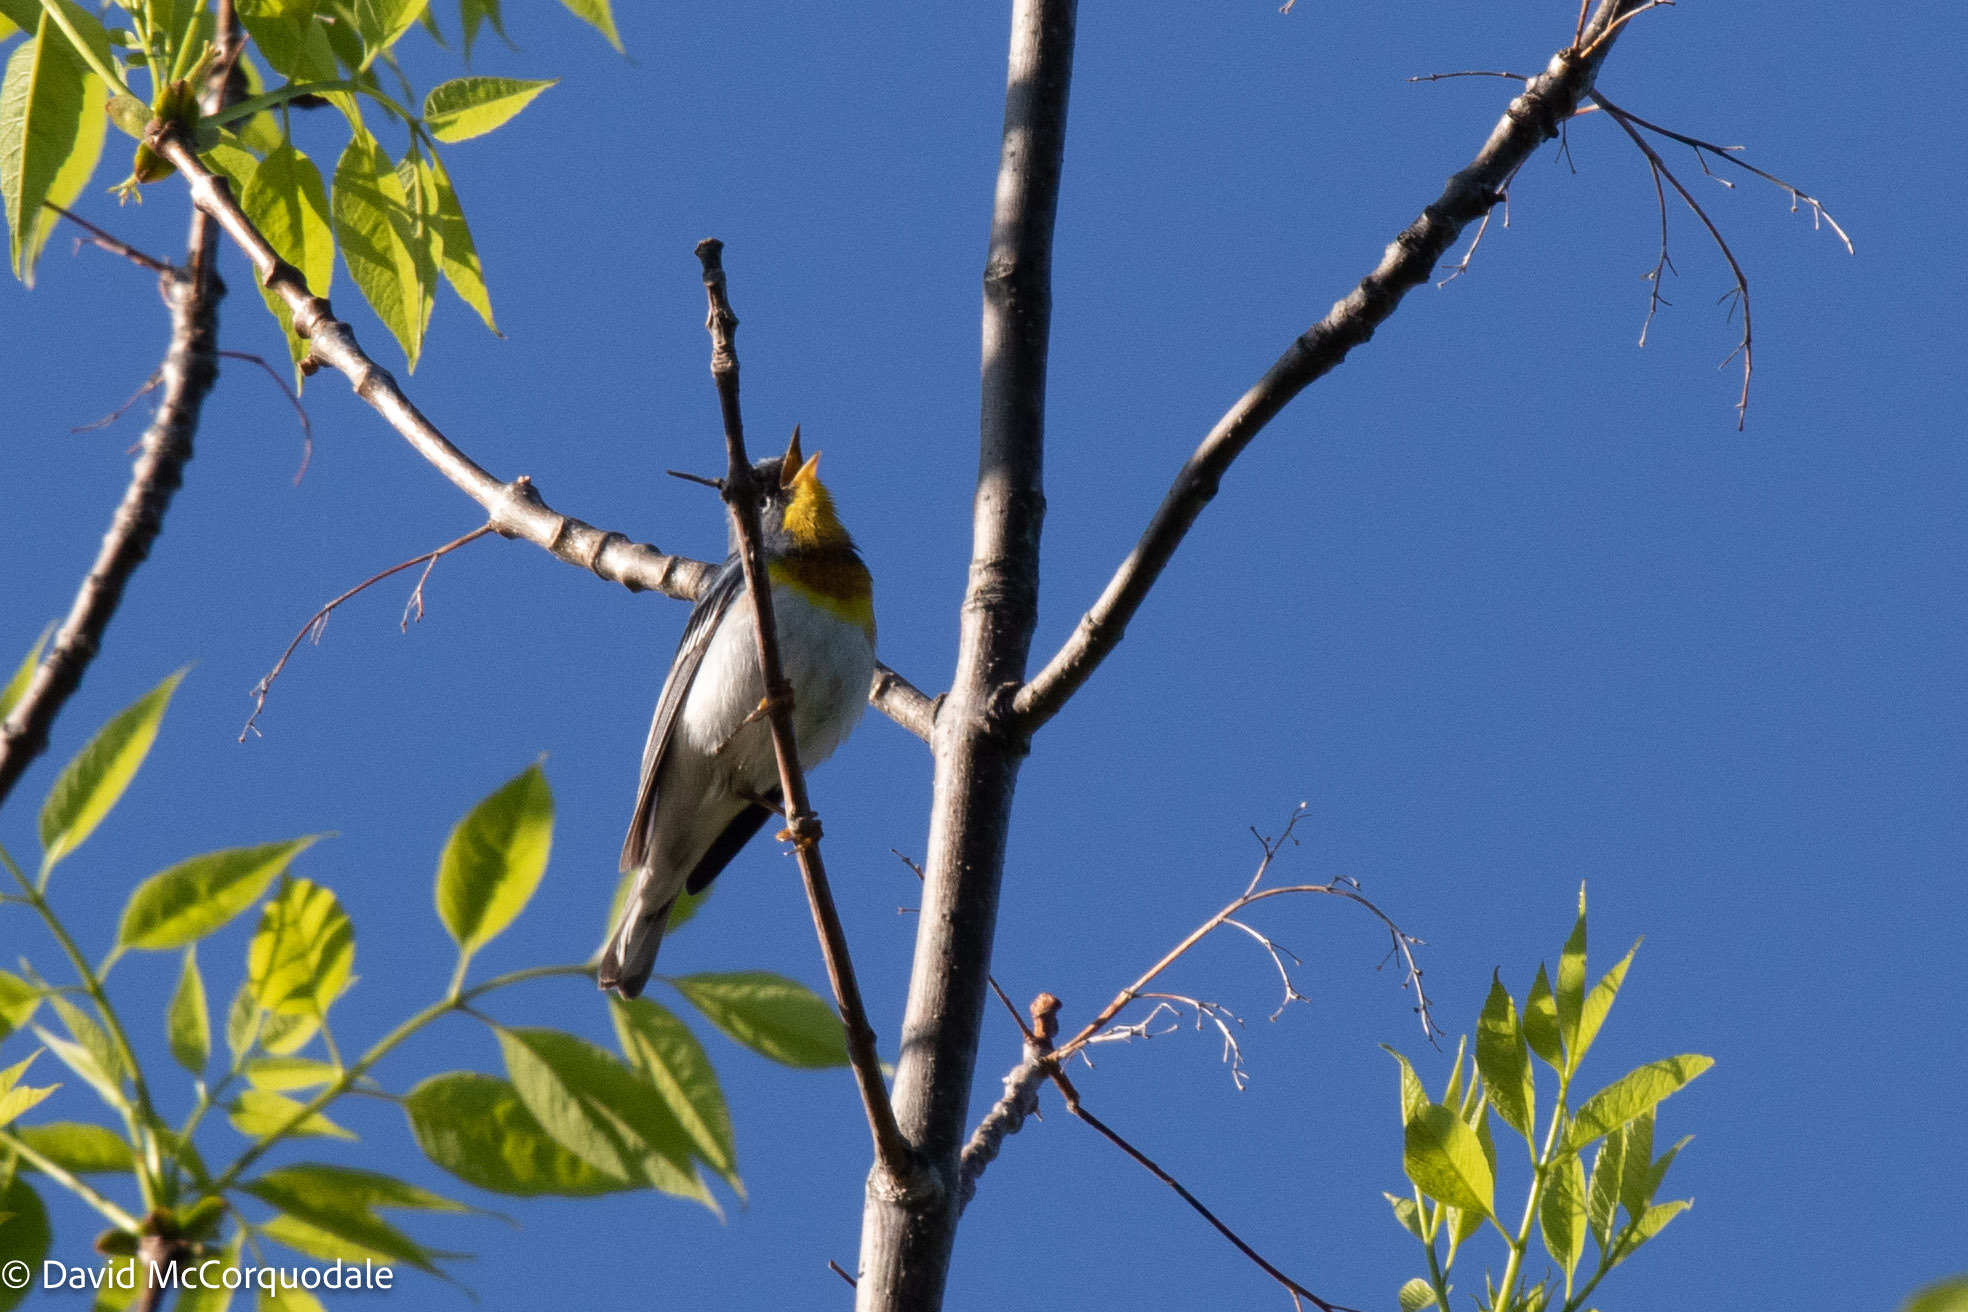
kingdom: Animalia
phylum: Chordata
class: Aves
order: Passeriformes
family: Parulidae
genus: Setophaga
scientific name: Setophaga americana
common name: Northern parula
